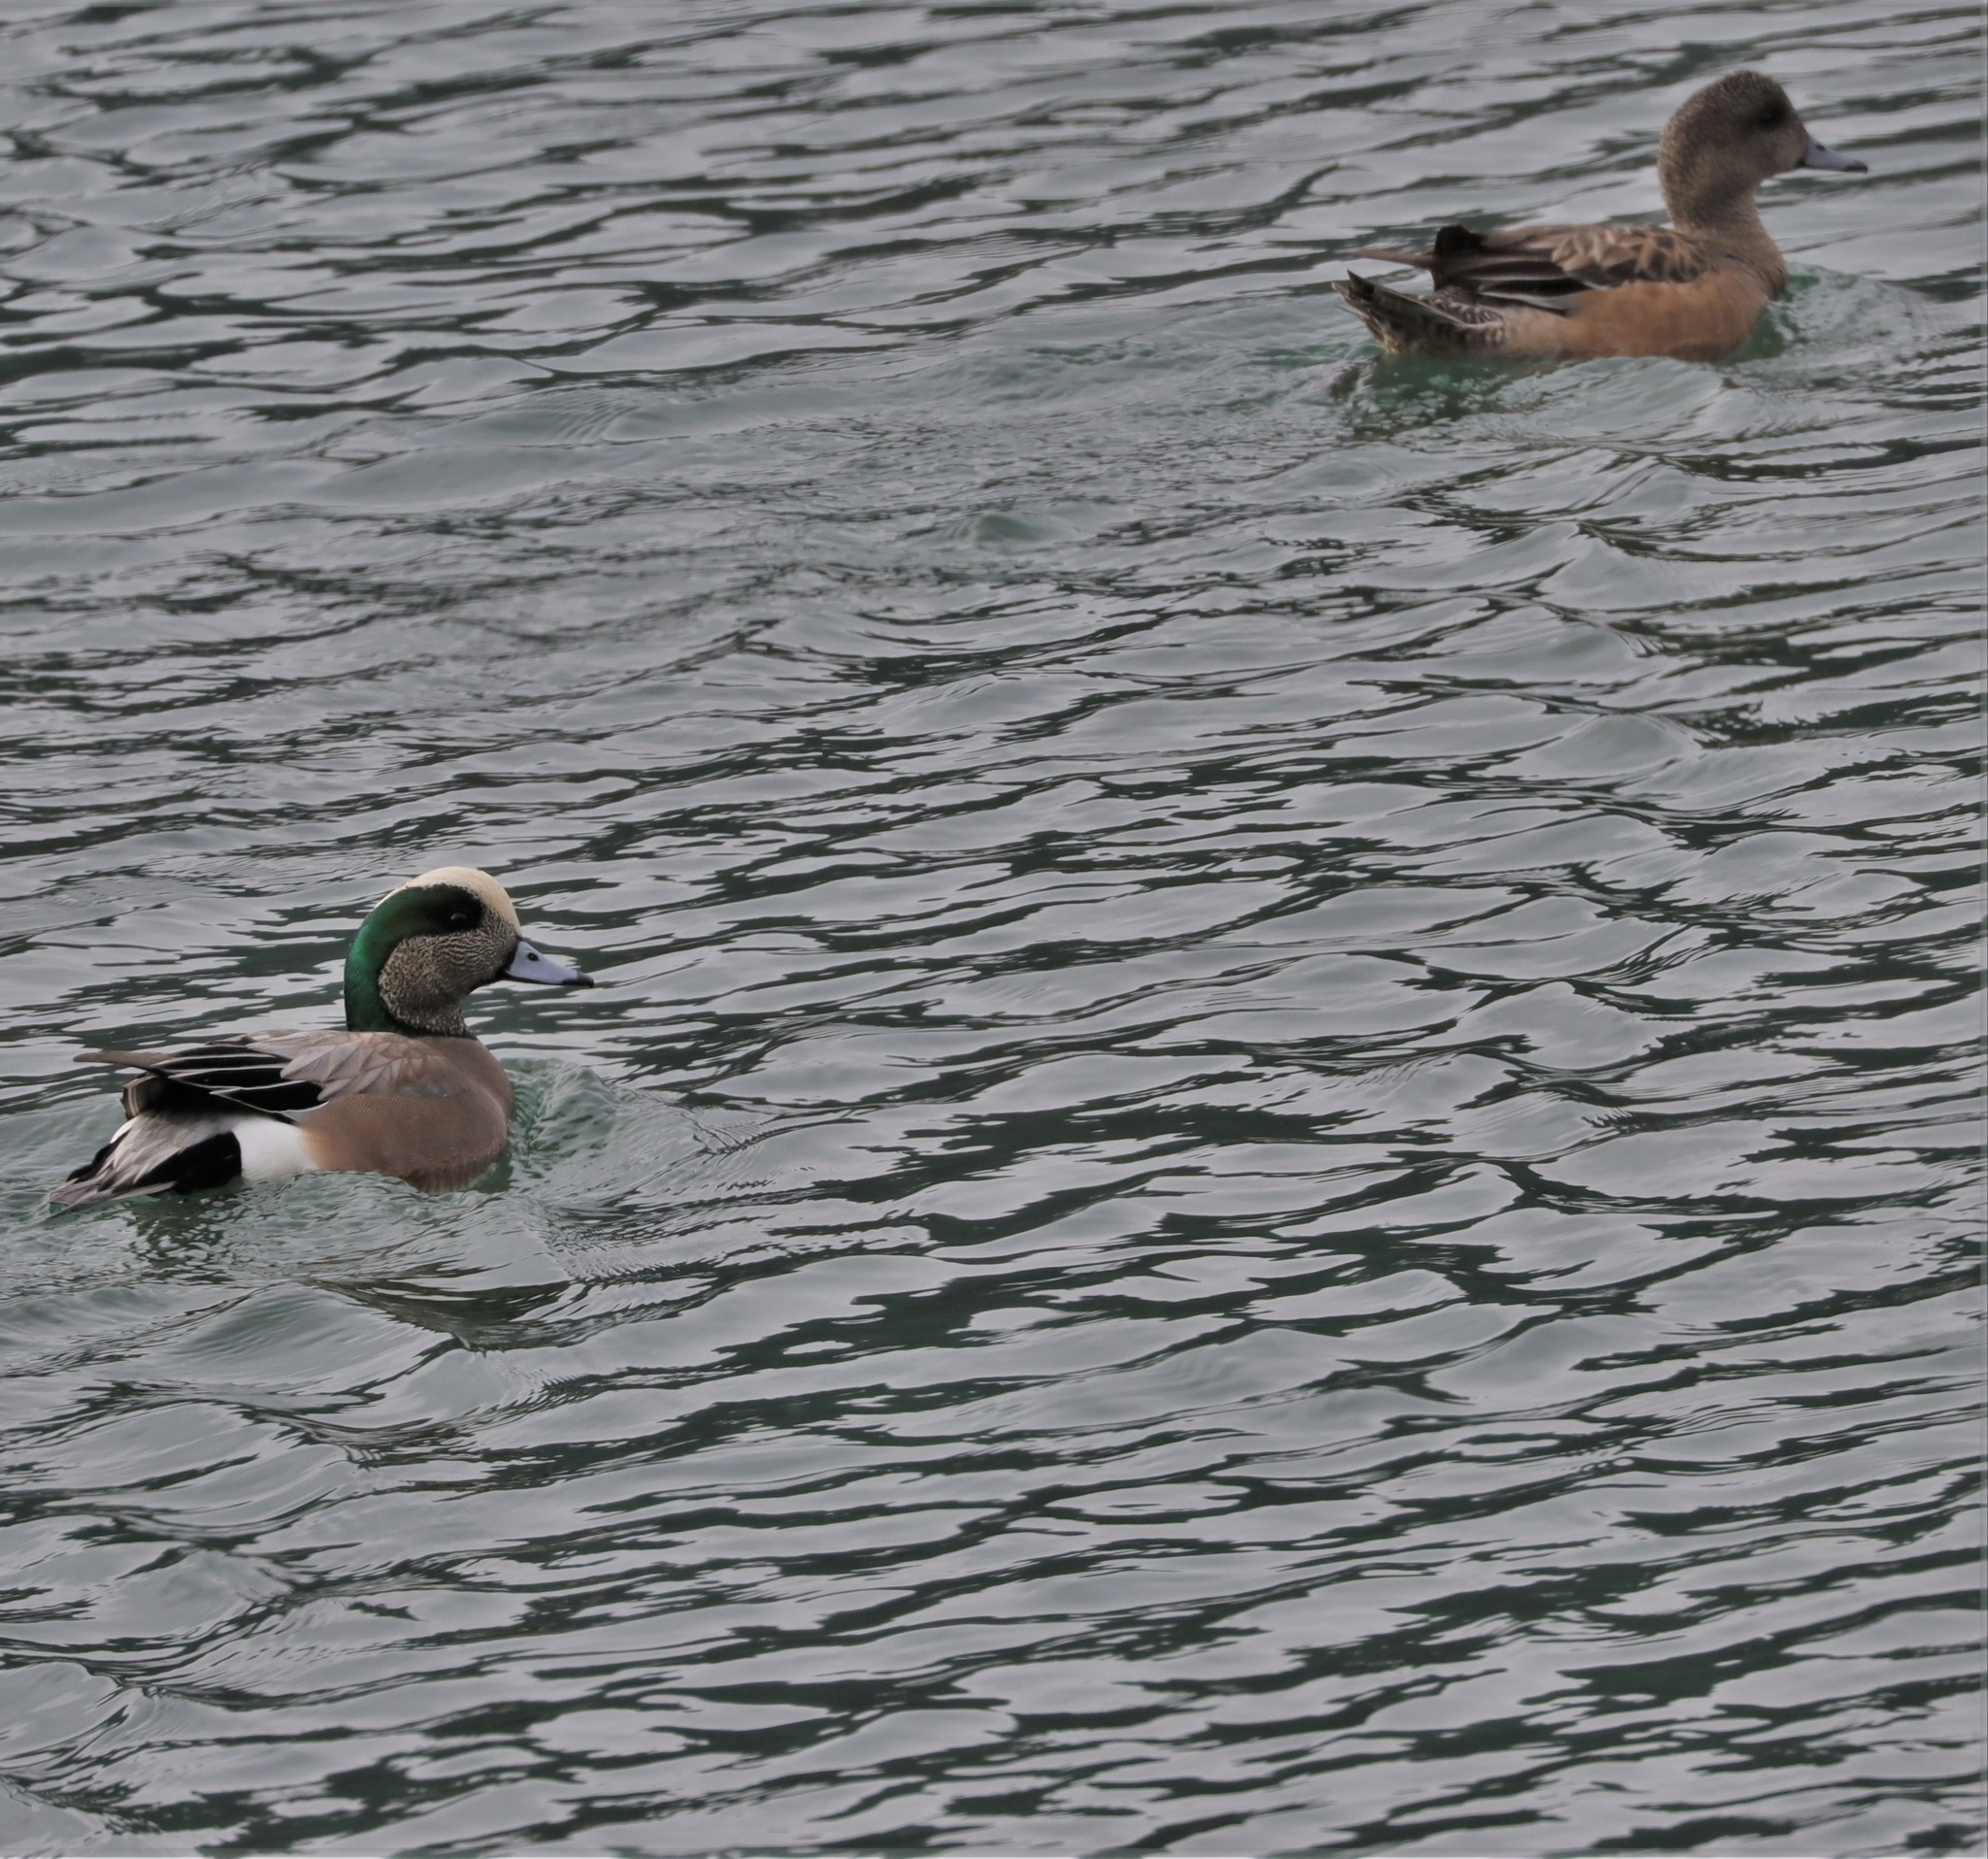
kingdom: Animalia
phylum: Chordata
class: Aves
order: Anseriformes
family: Anatidae
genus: Mareca
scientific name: Mareca americana
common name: American wigeon
